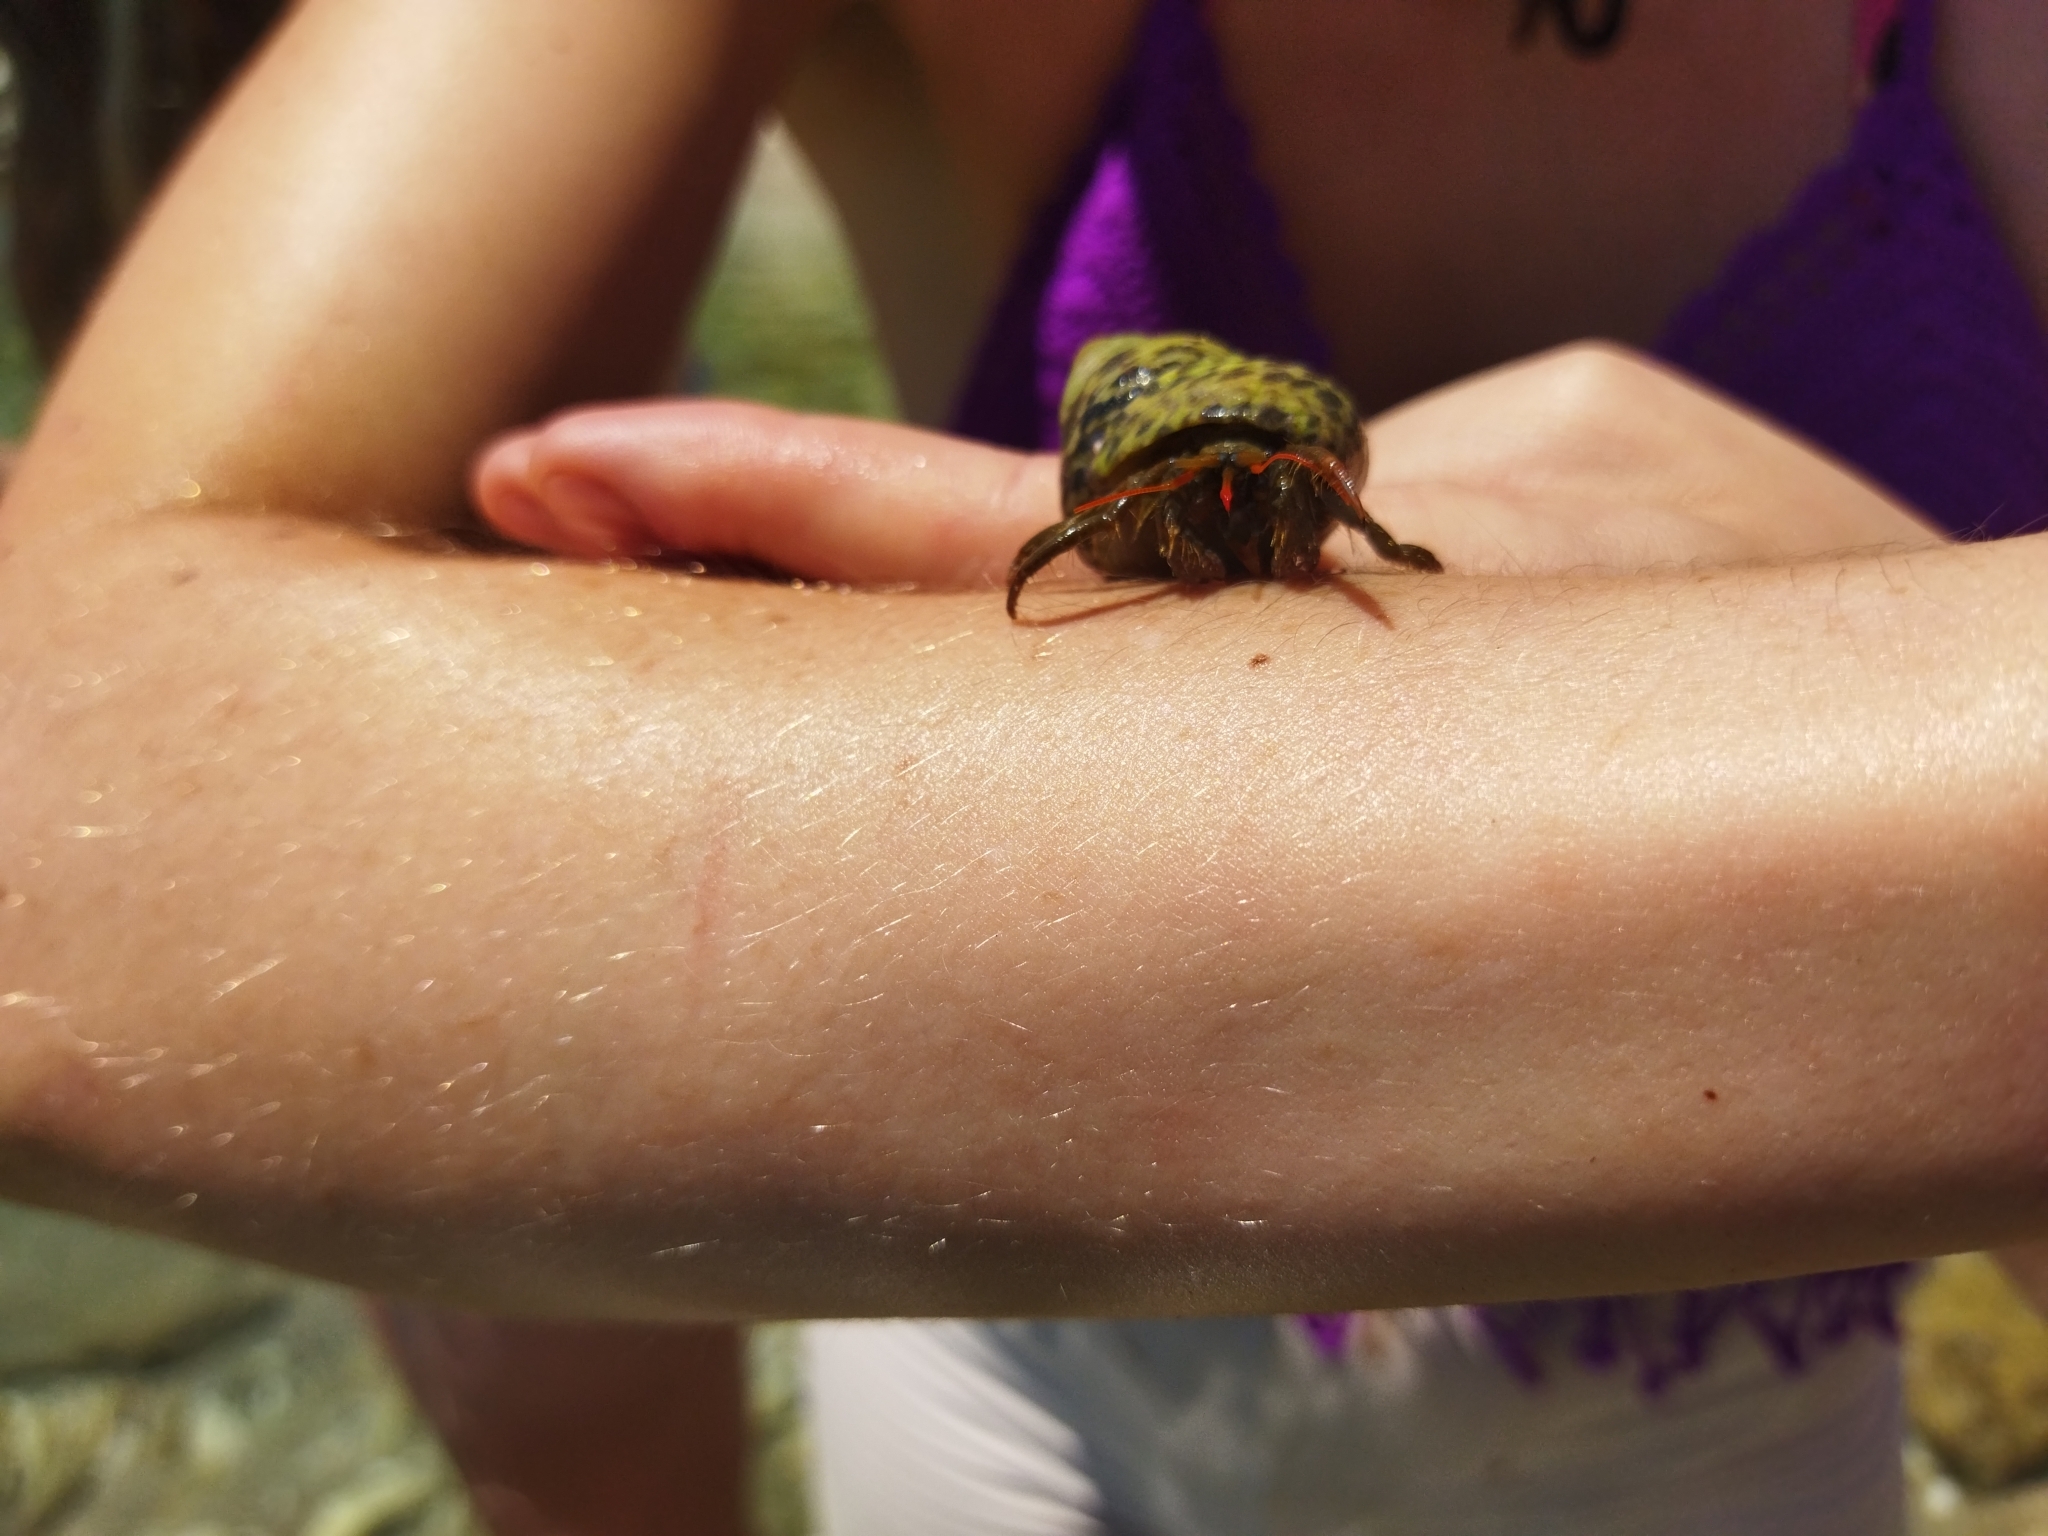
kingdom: Animalia
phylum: Arthropoda
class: Malacostraca
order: Decapoda
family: Diogenidae
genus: Clibanarius
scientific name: Clibanarius erythropus
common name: Hermit crab
